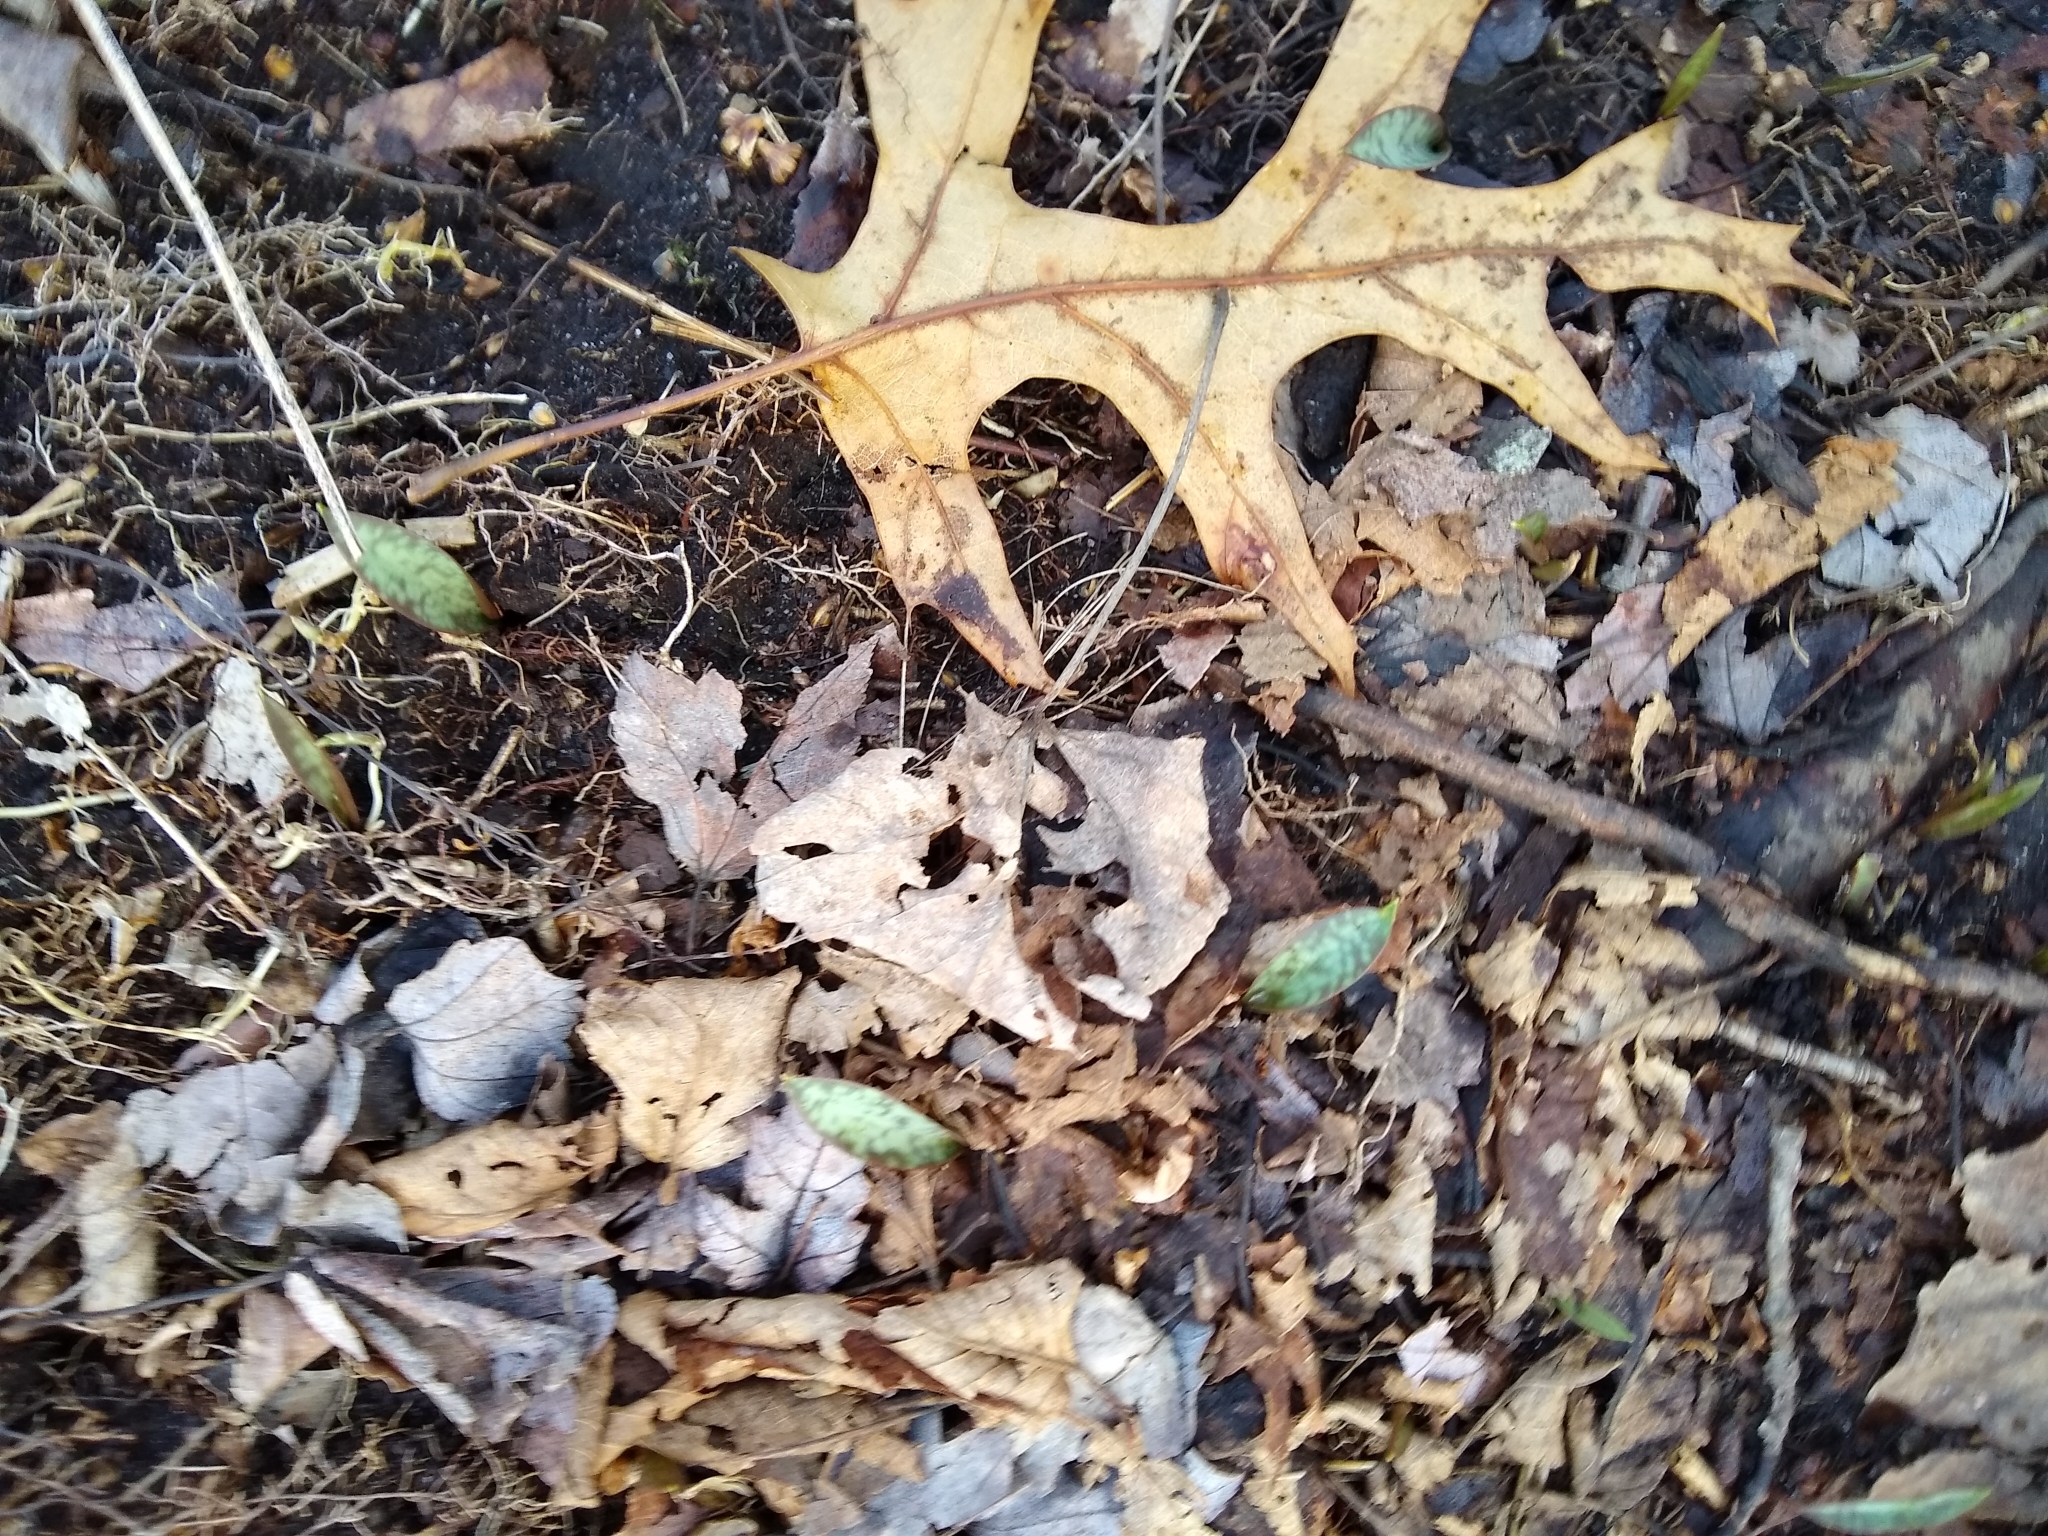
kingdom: Plantae
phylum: Tracheophyta
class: Liliopsida
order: Liliales
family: Liliaceae
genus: Erythronium
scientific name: Erythronium americanum
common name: Yellow adder's-tongue
